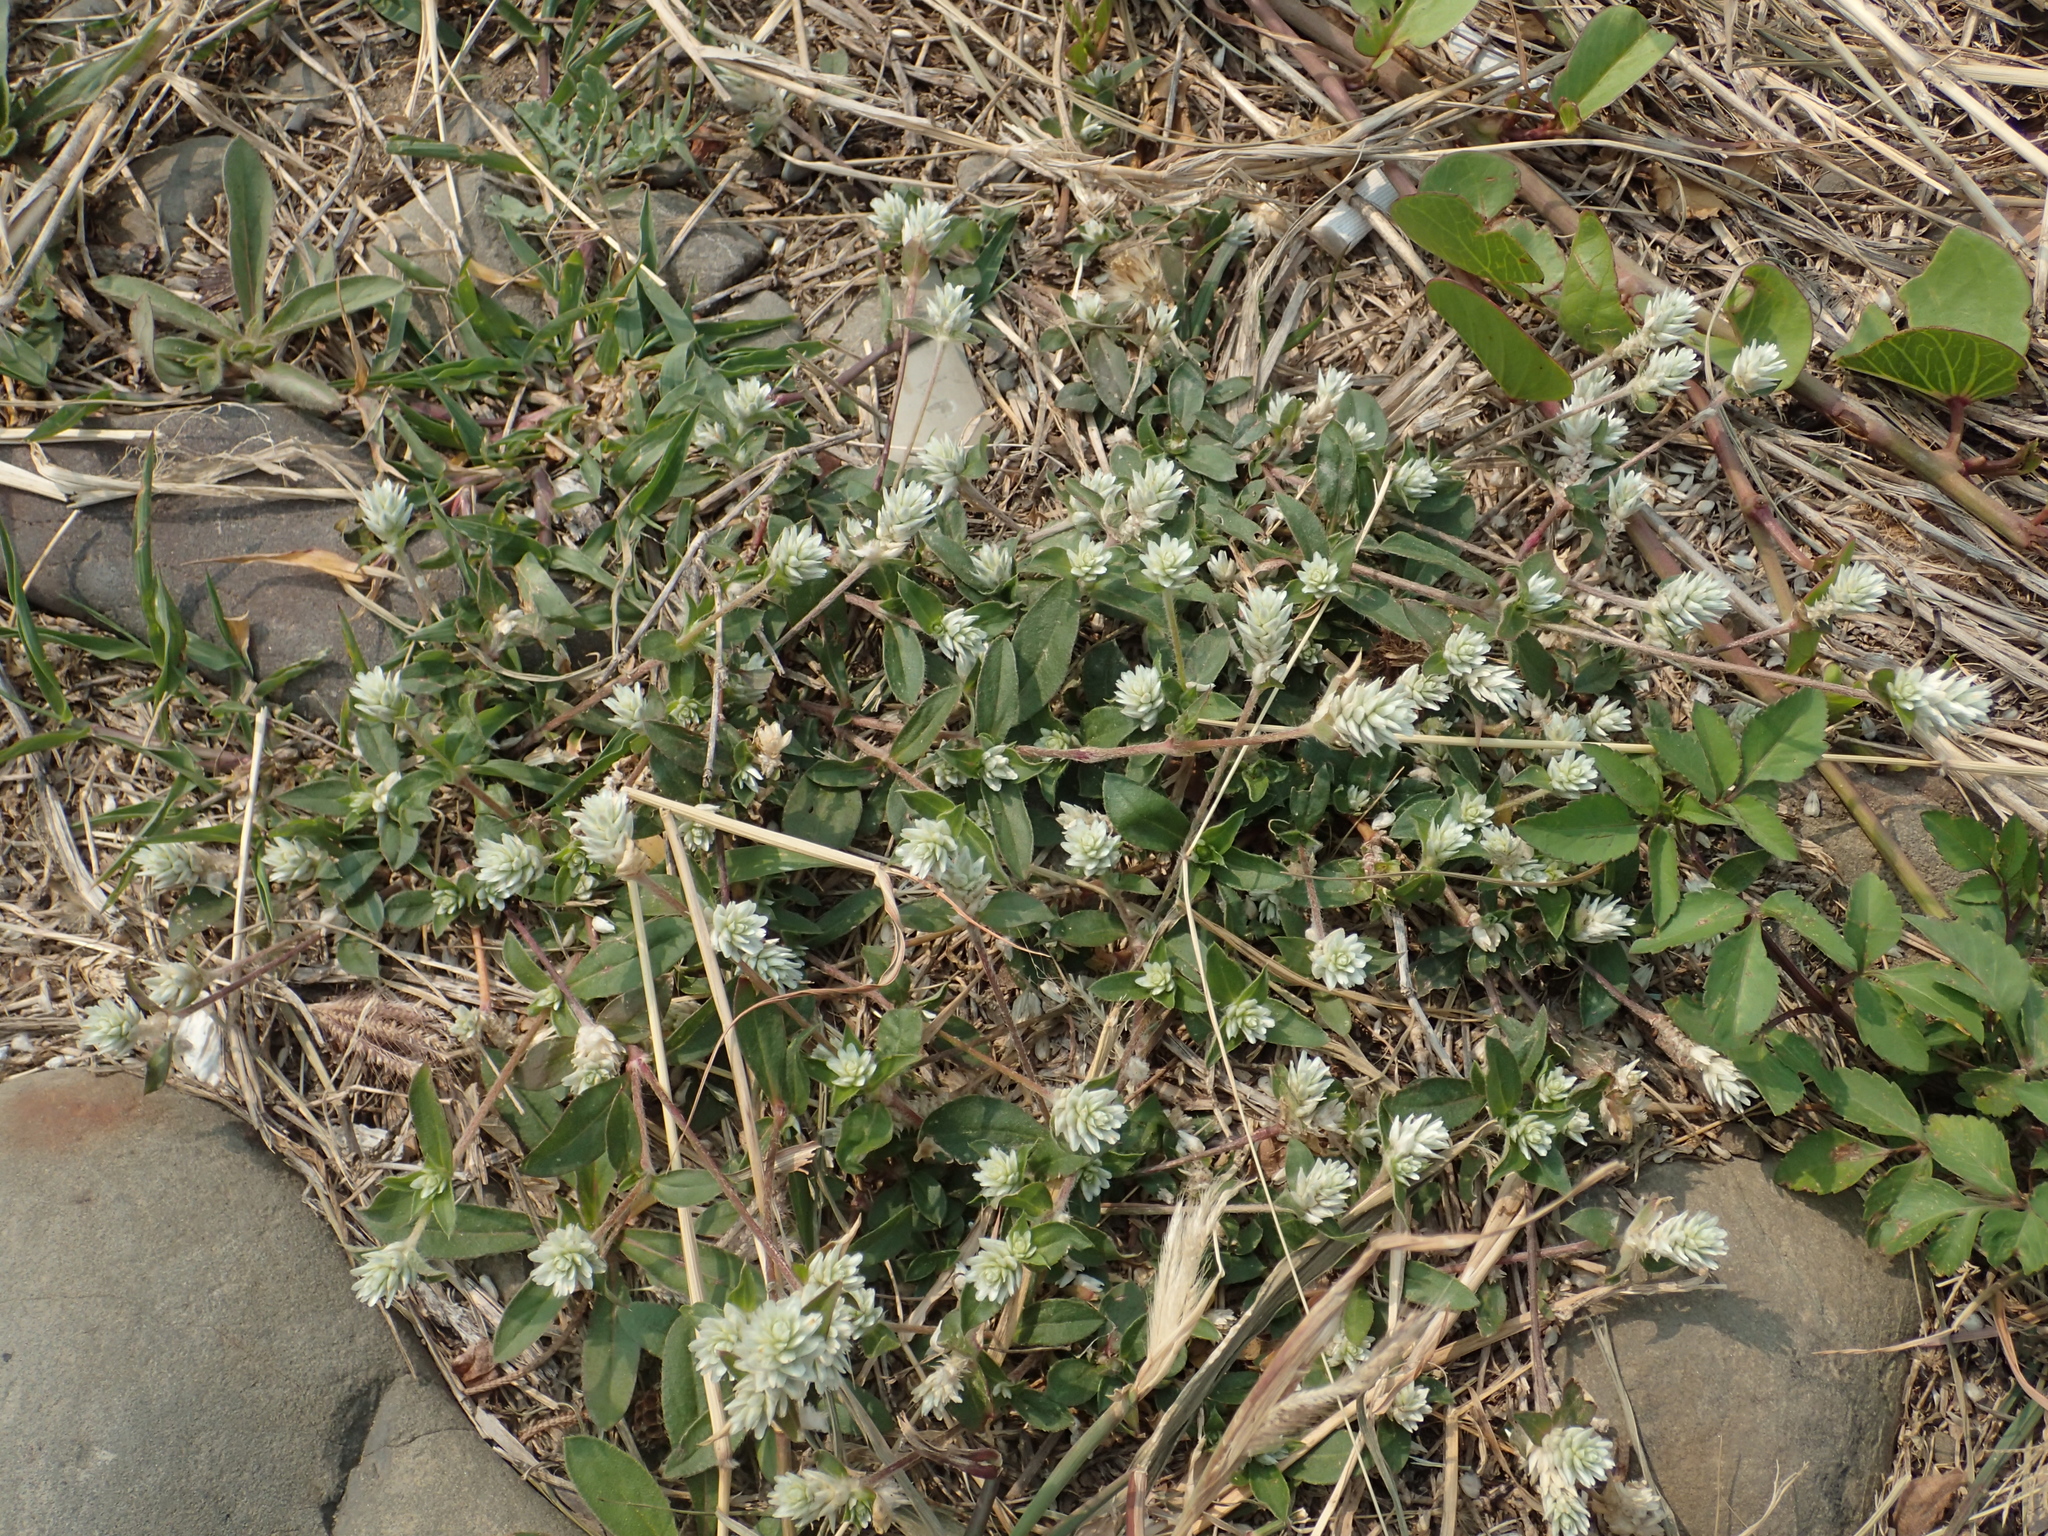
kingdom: Plantae
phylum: Tracheophyta
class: Magnoliopsida
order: Caryophyllales
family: Amaranthaceae
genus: Gomphrena
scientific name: Gomphrena serrata
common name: Arrasa con todo
